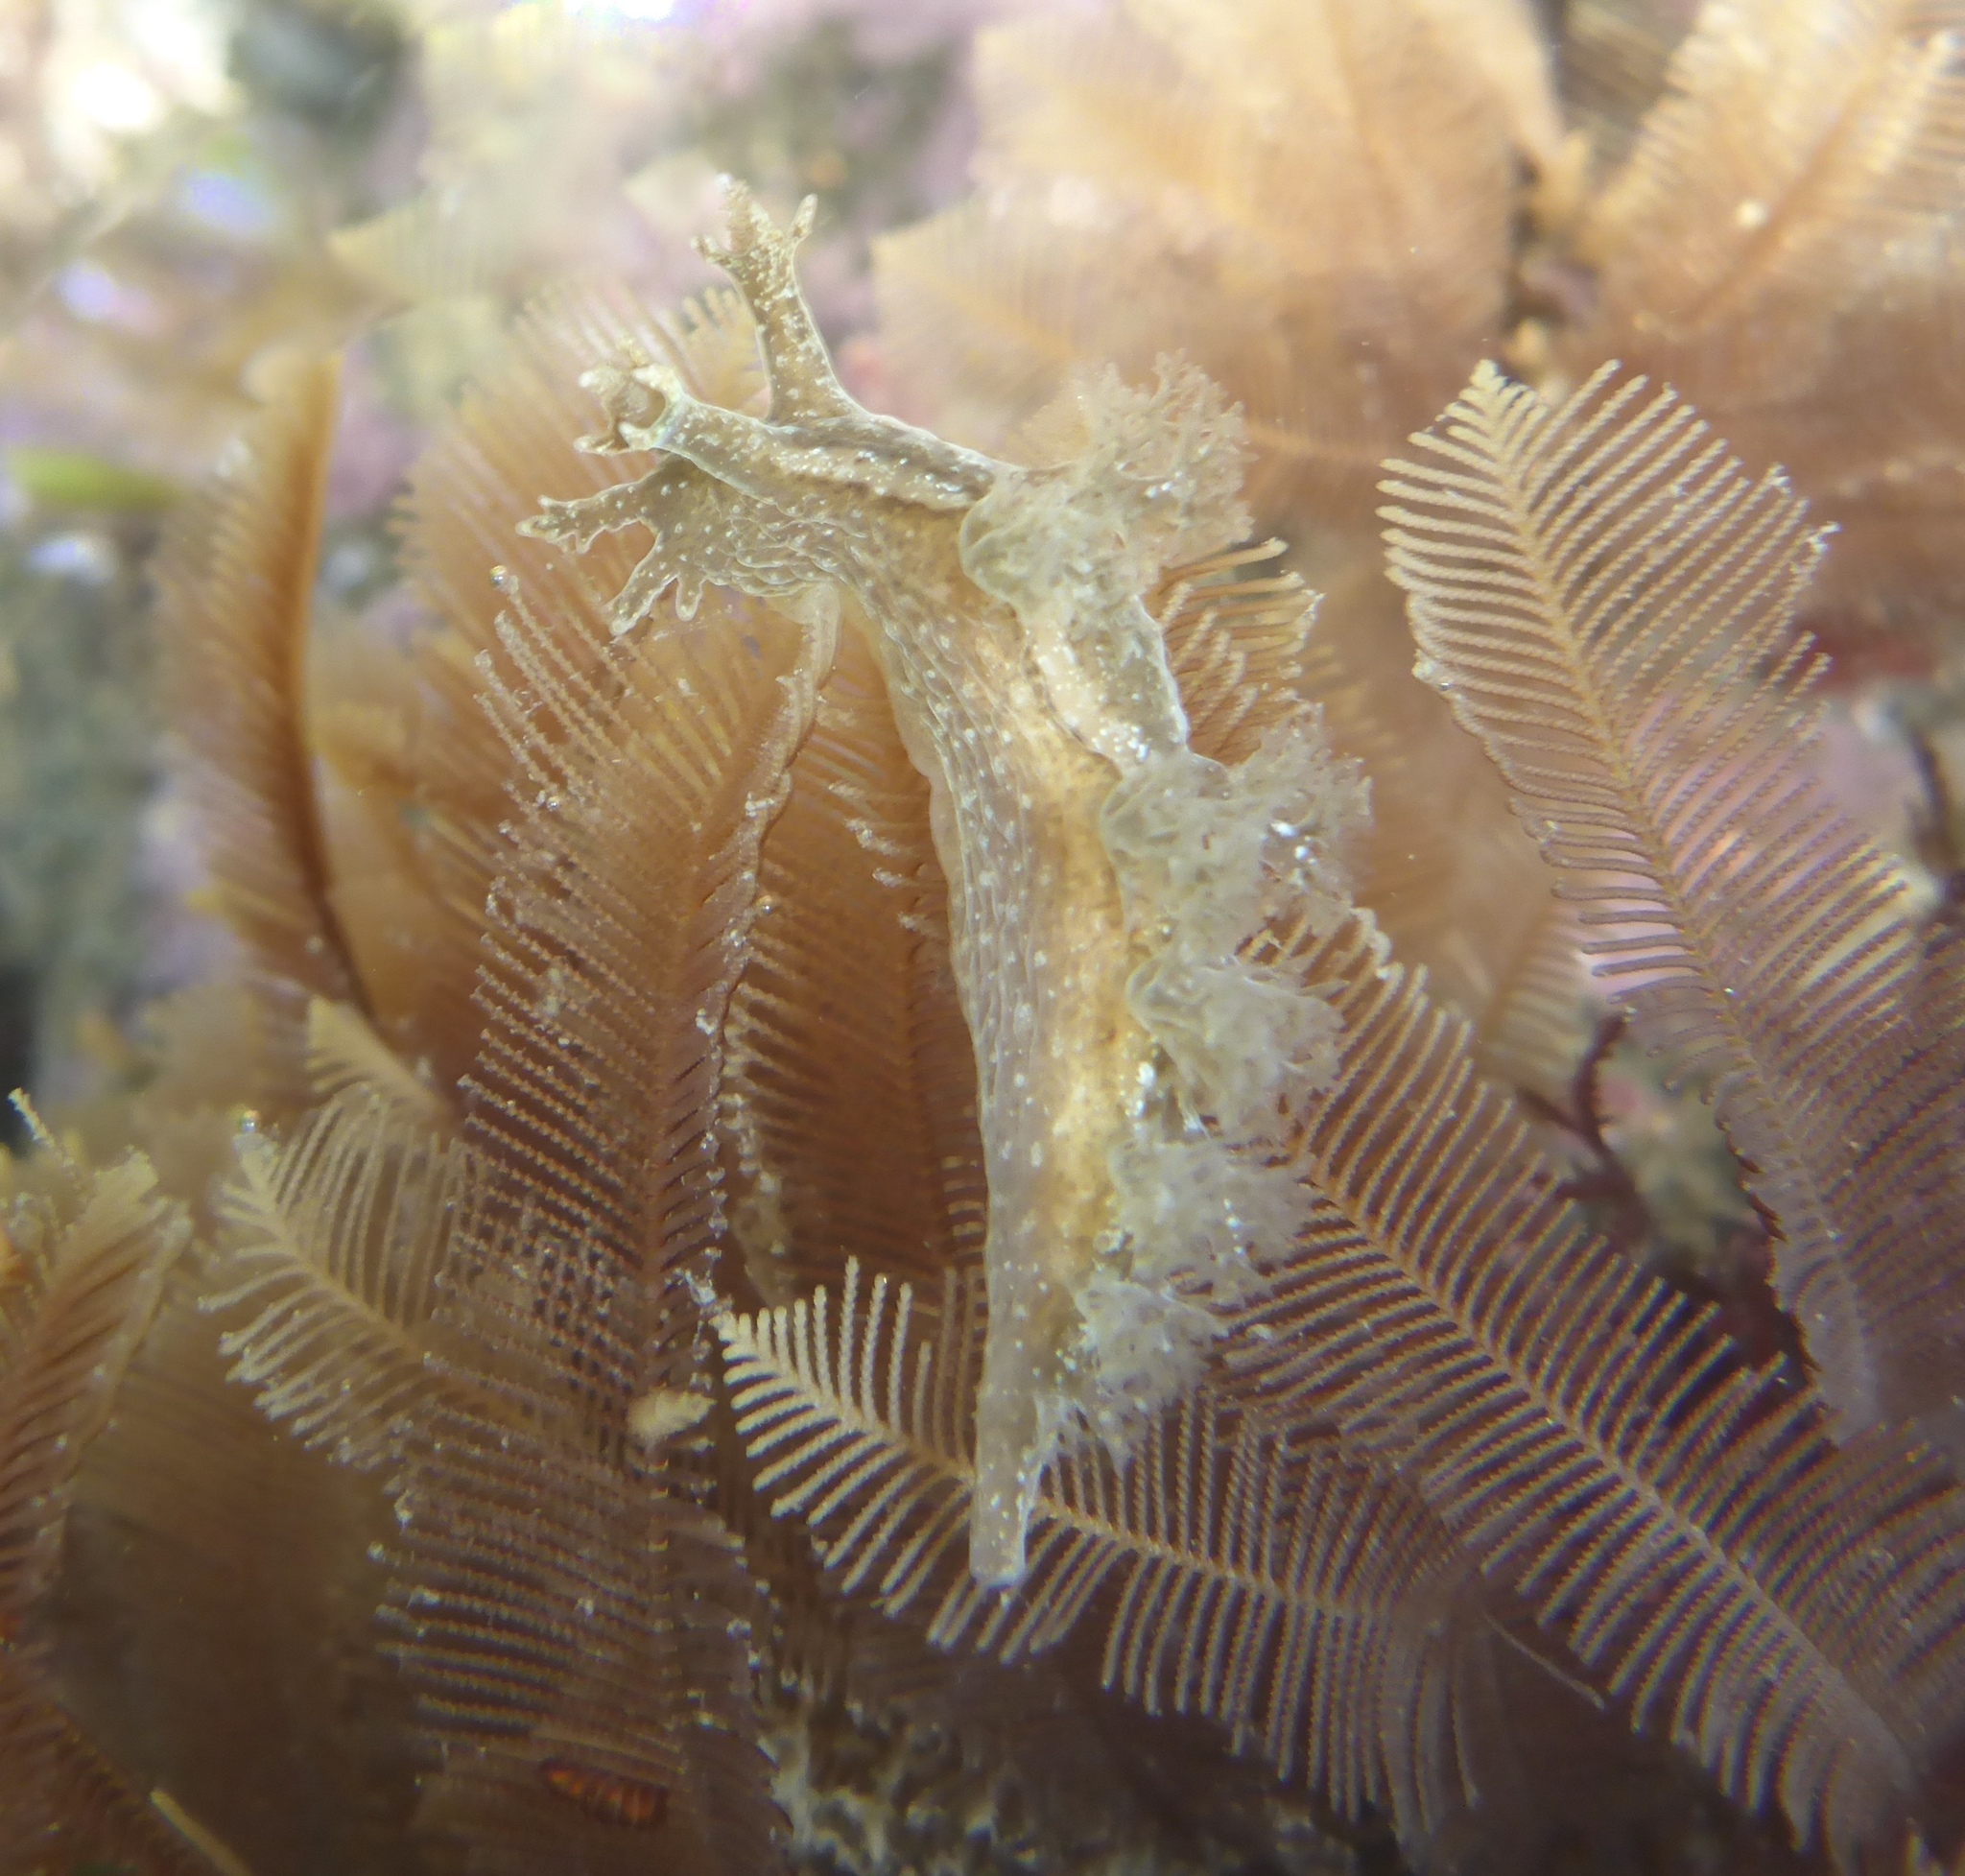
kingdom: Animalia
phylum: Mollusca
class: Gastropoda
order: Nudibranchia
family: Dendronotidae
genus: Dendronotus
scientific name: Dendronotus subramosus
